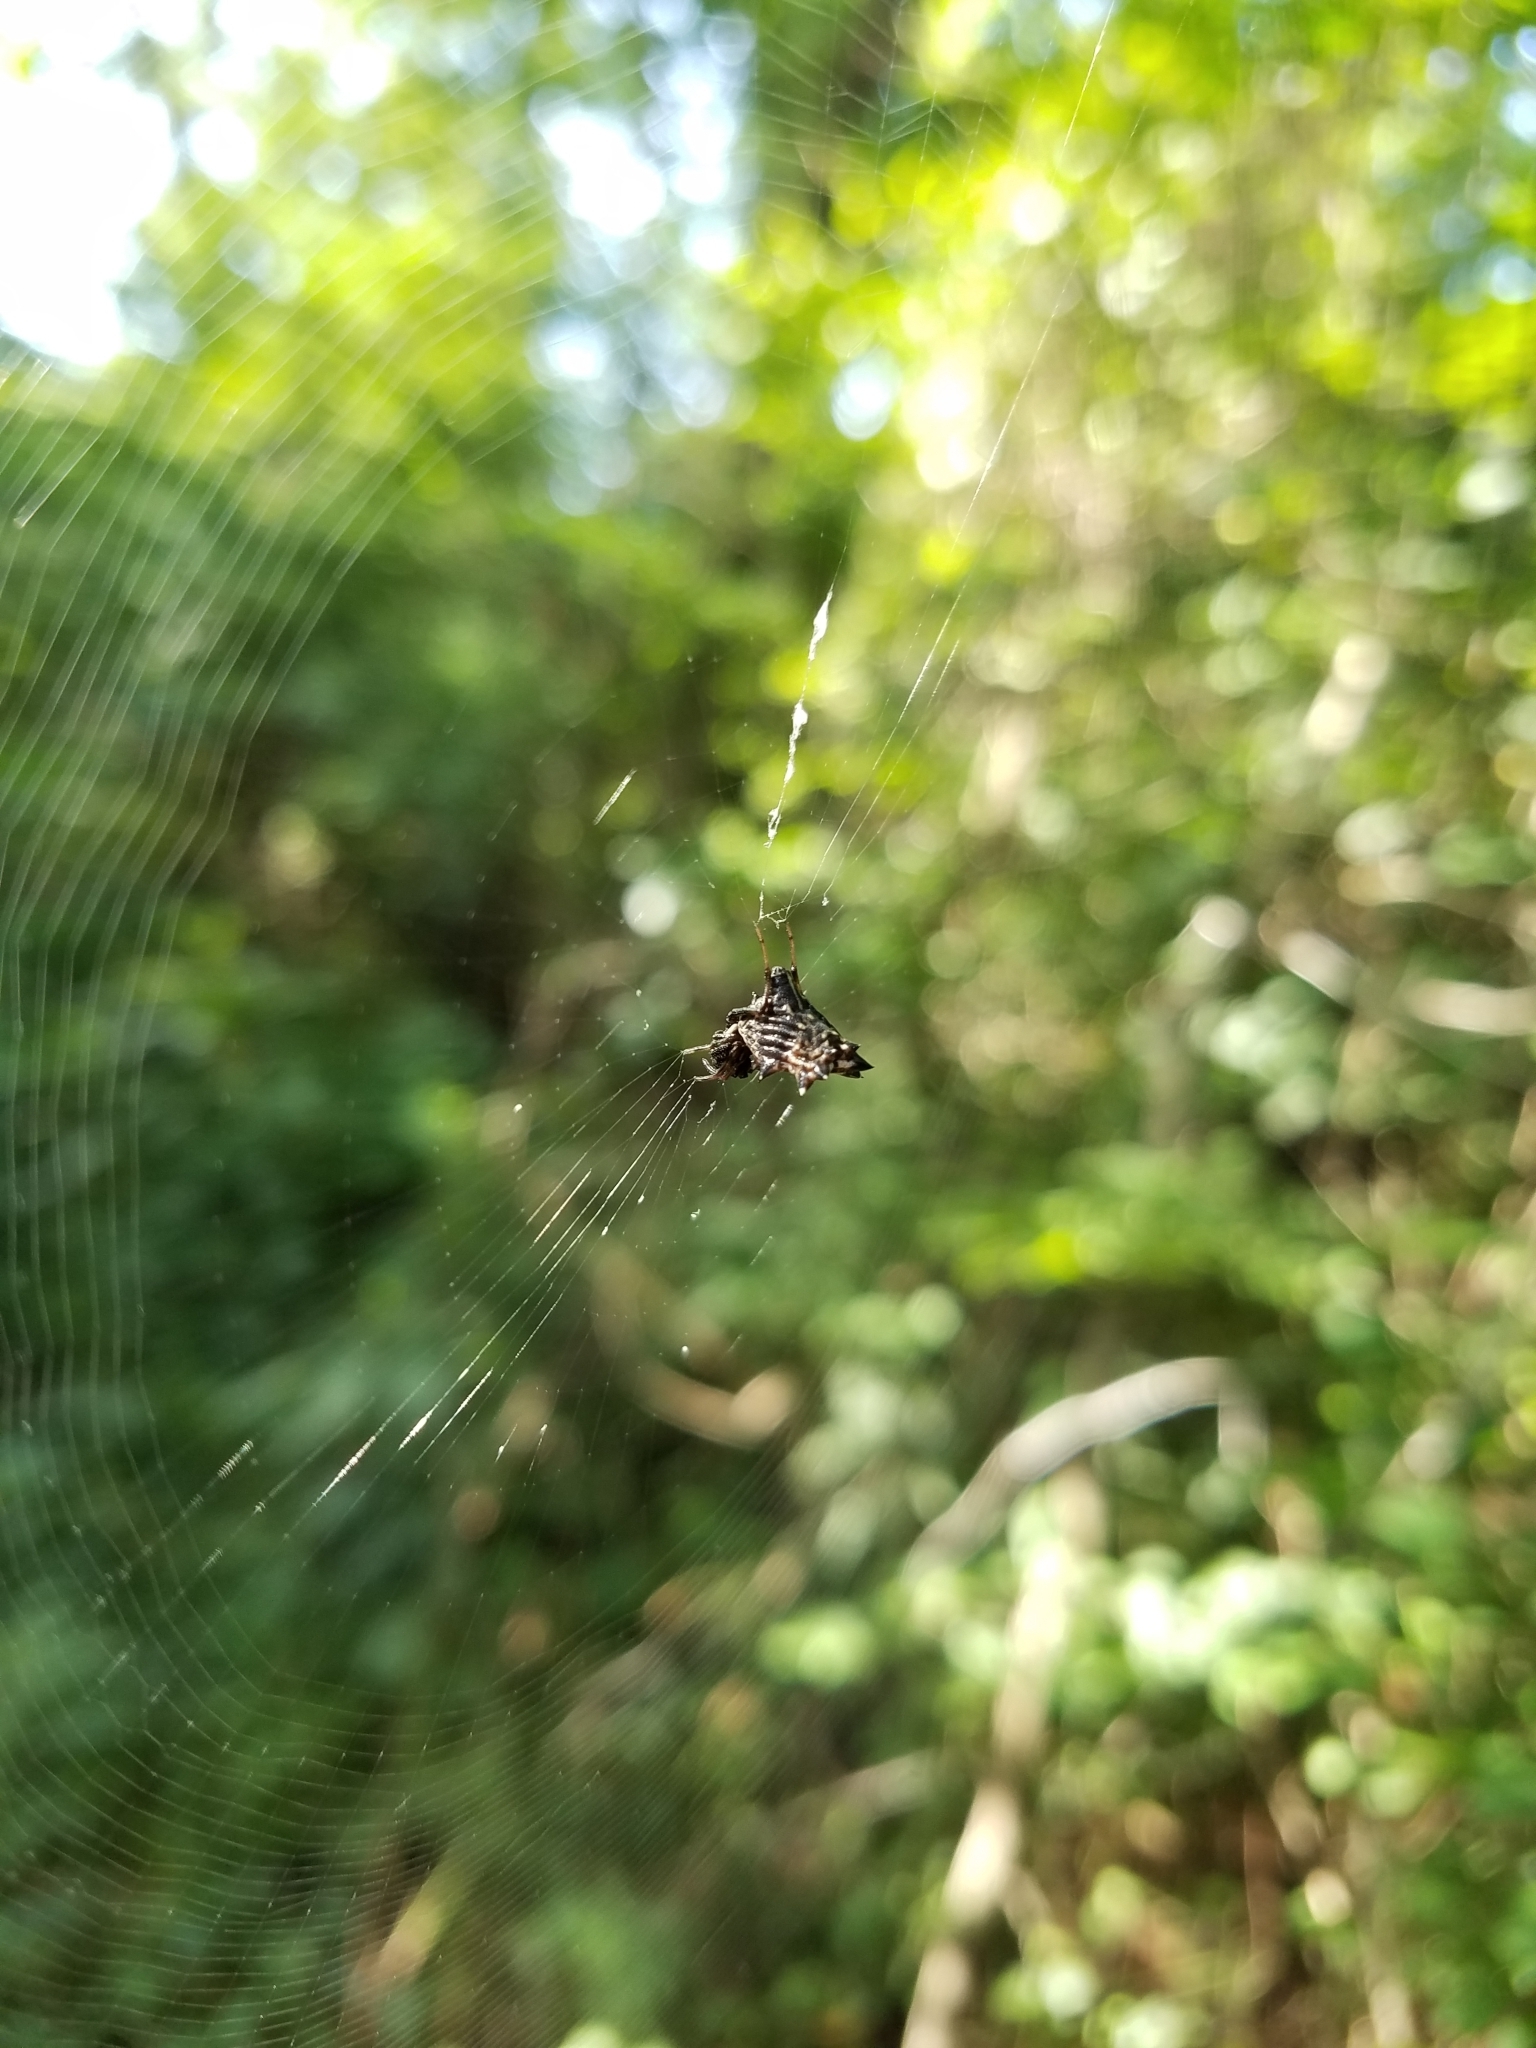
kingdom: Animalia
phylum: Arthropoda
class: Arachnida
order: Araneae
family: Araneidae
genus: Micrathena
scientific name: Micrathena gracilis
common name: Orb weavers
